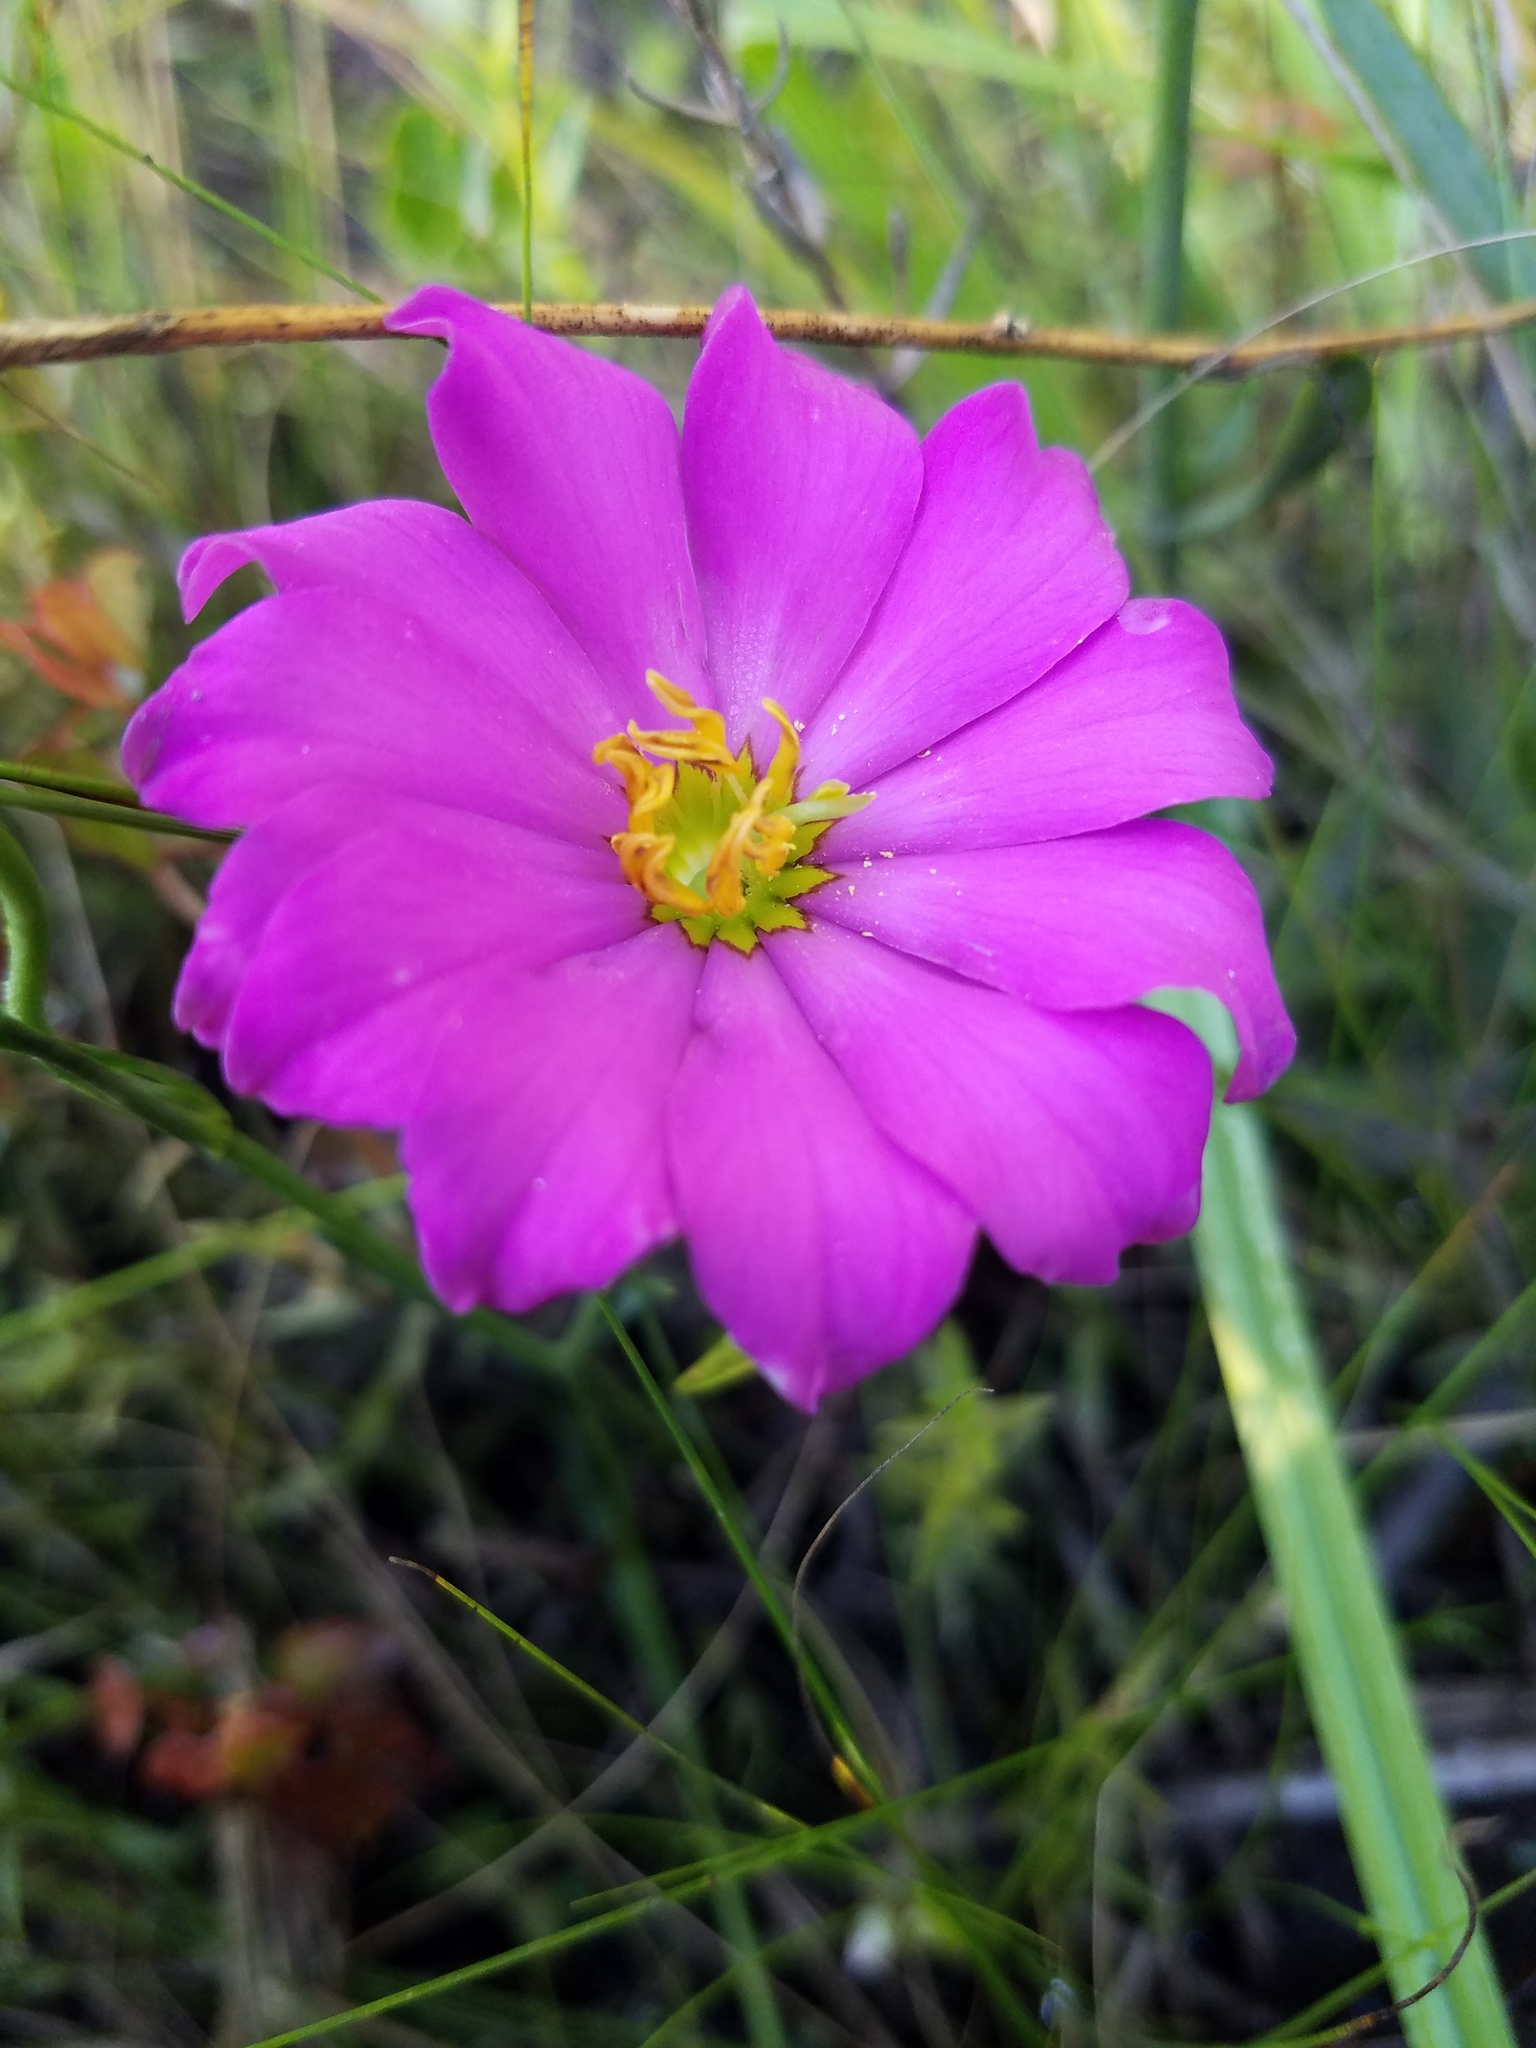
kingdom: Plantae
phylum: Tracheophyta
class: Magnoliopsida
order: Gentianales
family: Gentianaceae
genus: Sabatia
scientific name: Sabatia decandra
